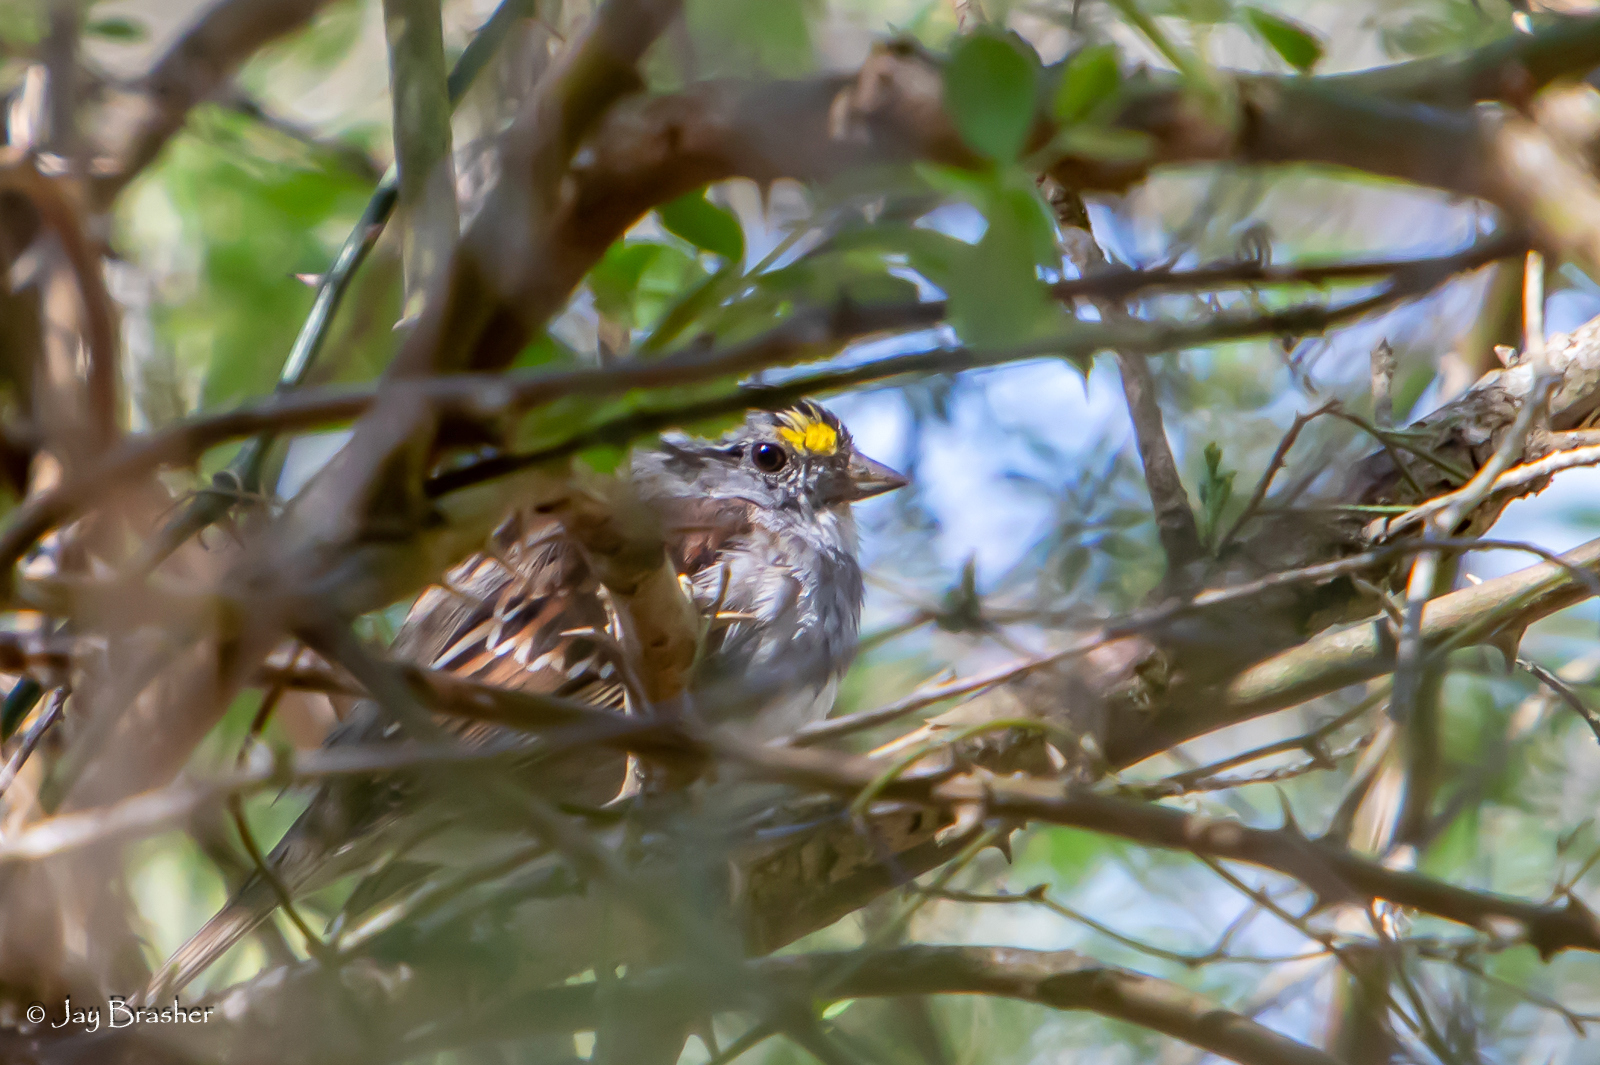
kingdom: Animalia
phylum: Chordata
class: Aves
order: Passeriformes
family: Passerellidae
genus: Zonotrichia
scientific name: Zonotrichia albicollis
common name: White-throated sparrow
